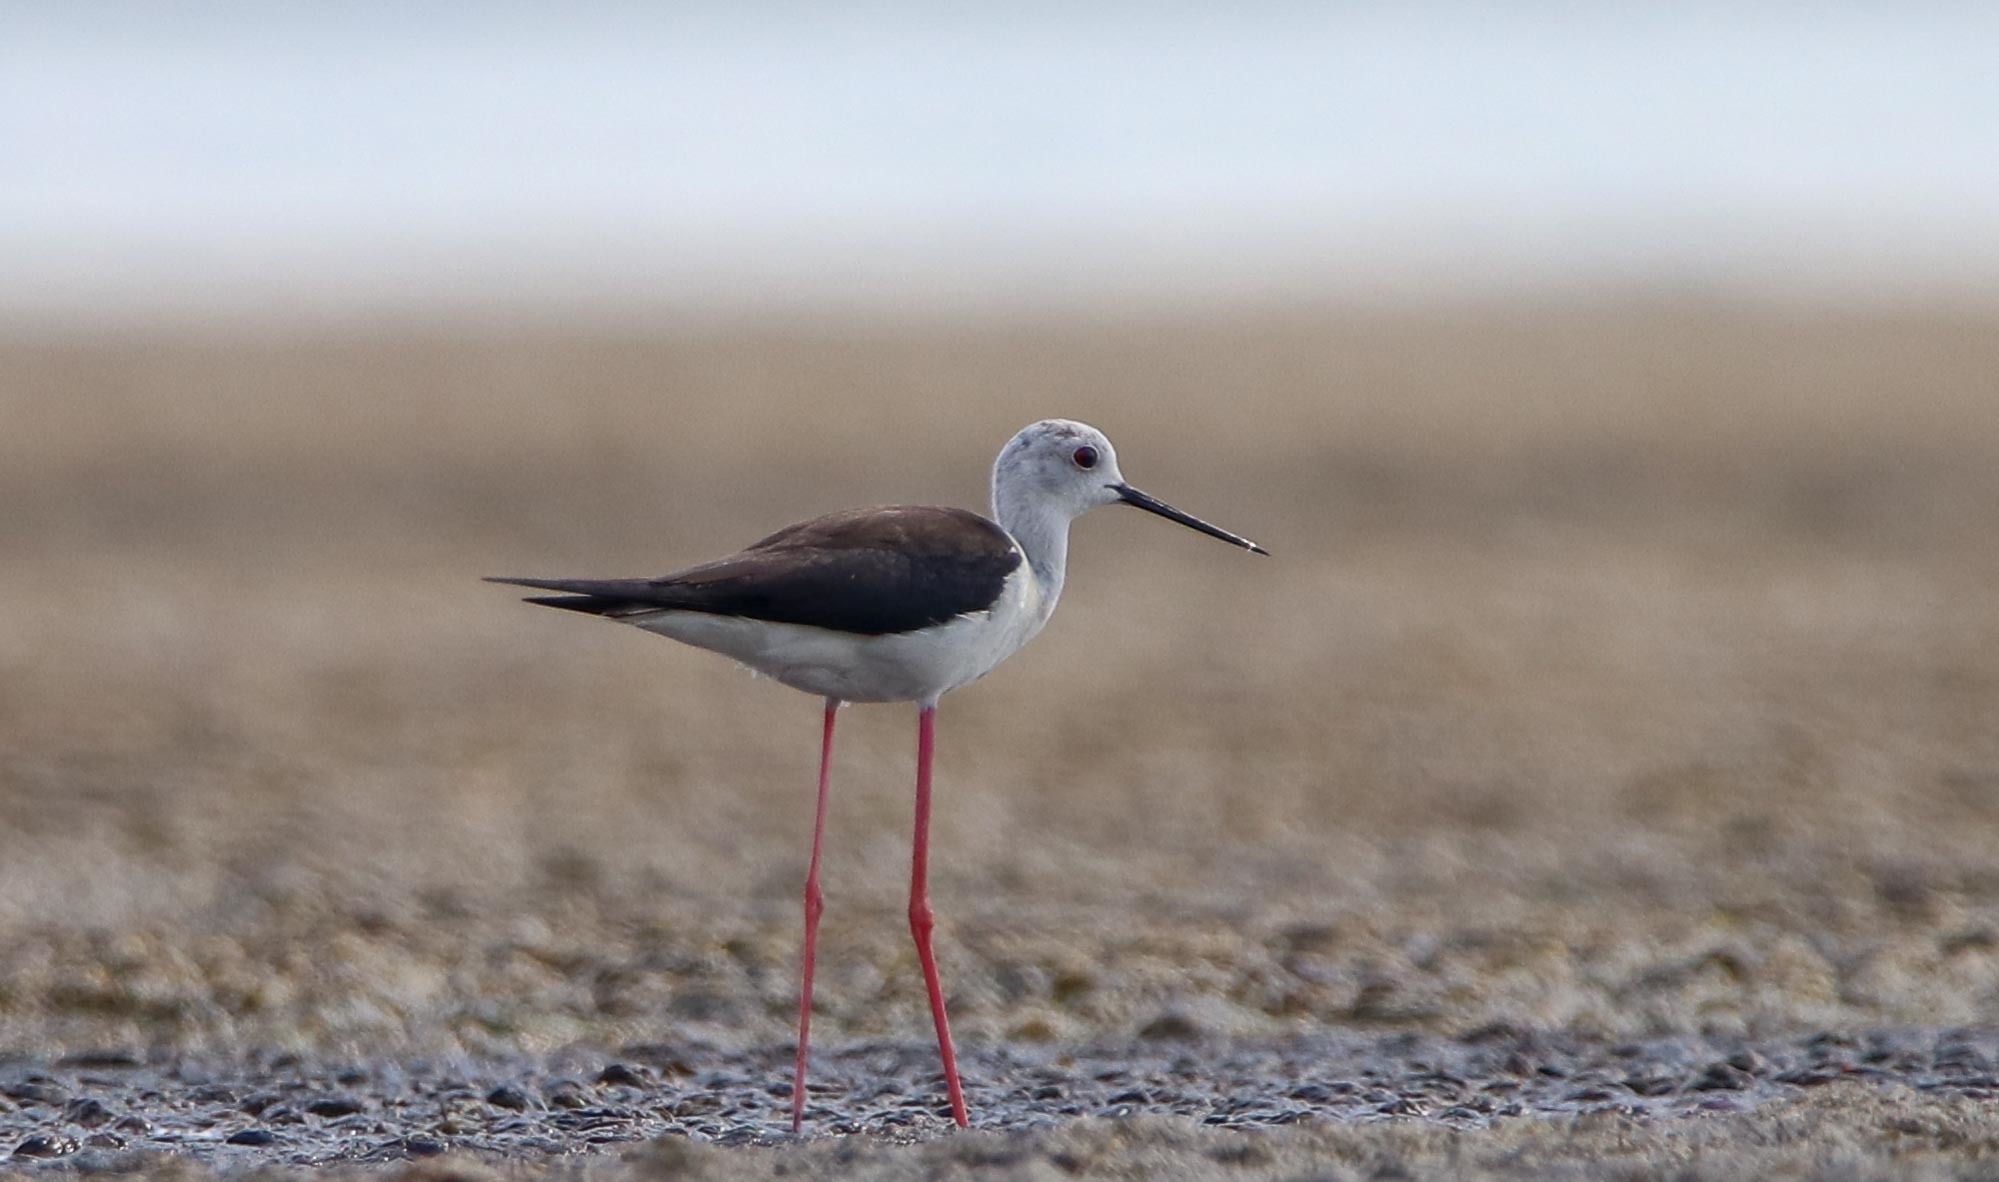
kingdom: Animalia
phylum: Chordata
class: Aves
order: Charadriiformes
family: Recurvirostridae
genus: Himantopus
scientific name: Himantopus himantopus
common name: Black-winged stilt
